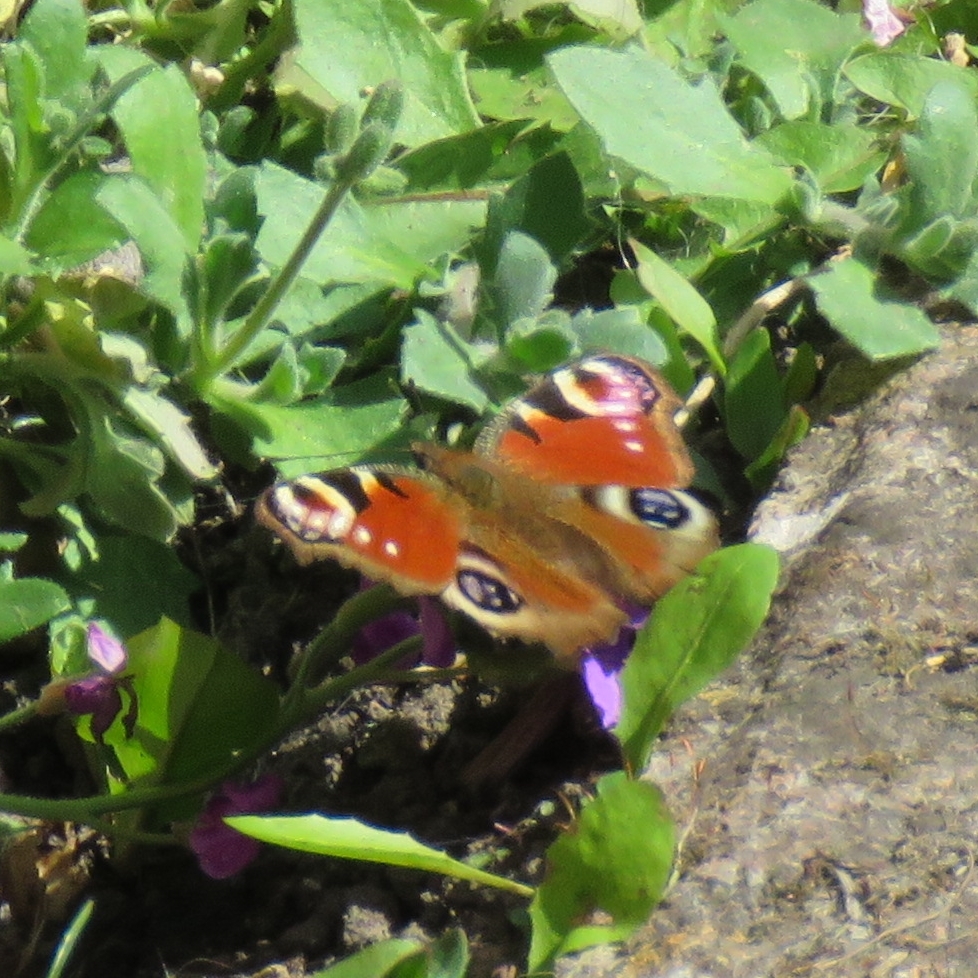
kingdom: Animalia
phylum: Arthropoda
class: Insecta
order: Lepidoptera
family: Nymphalidae
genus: Aglais
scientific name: Aglais io
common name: Peacock
